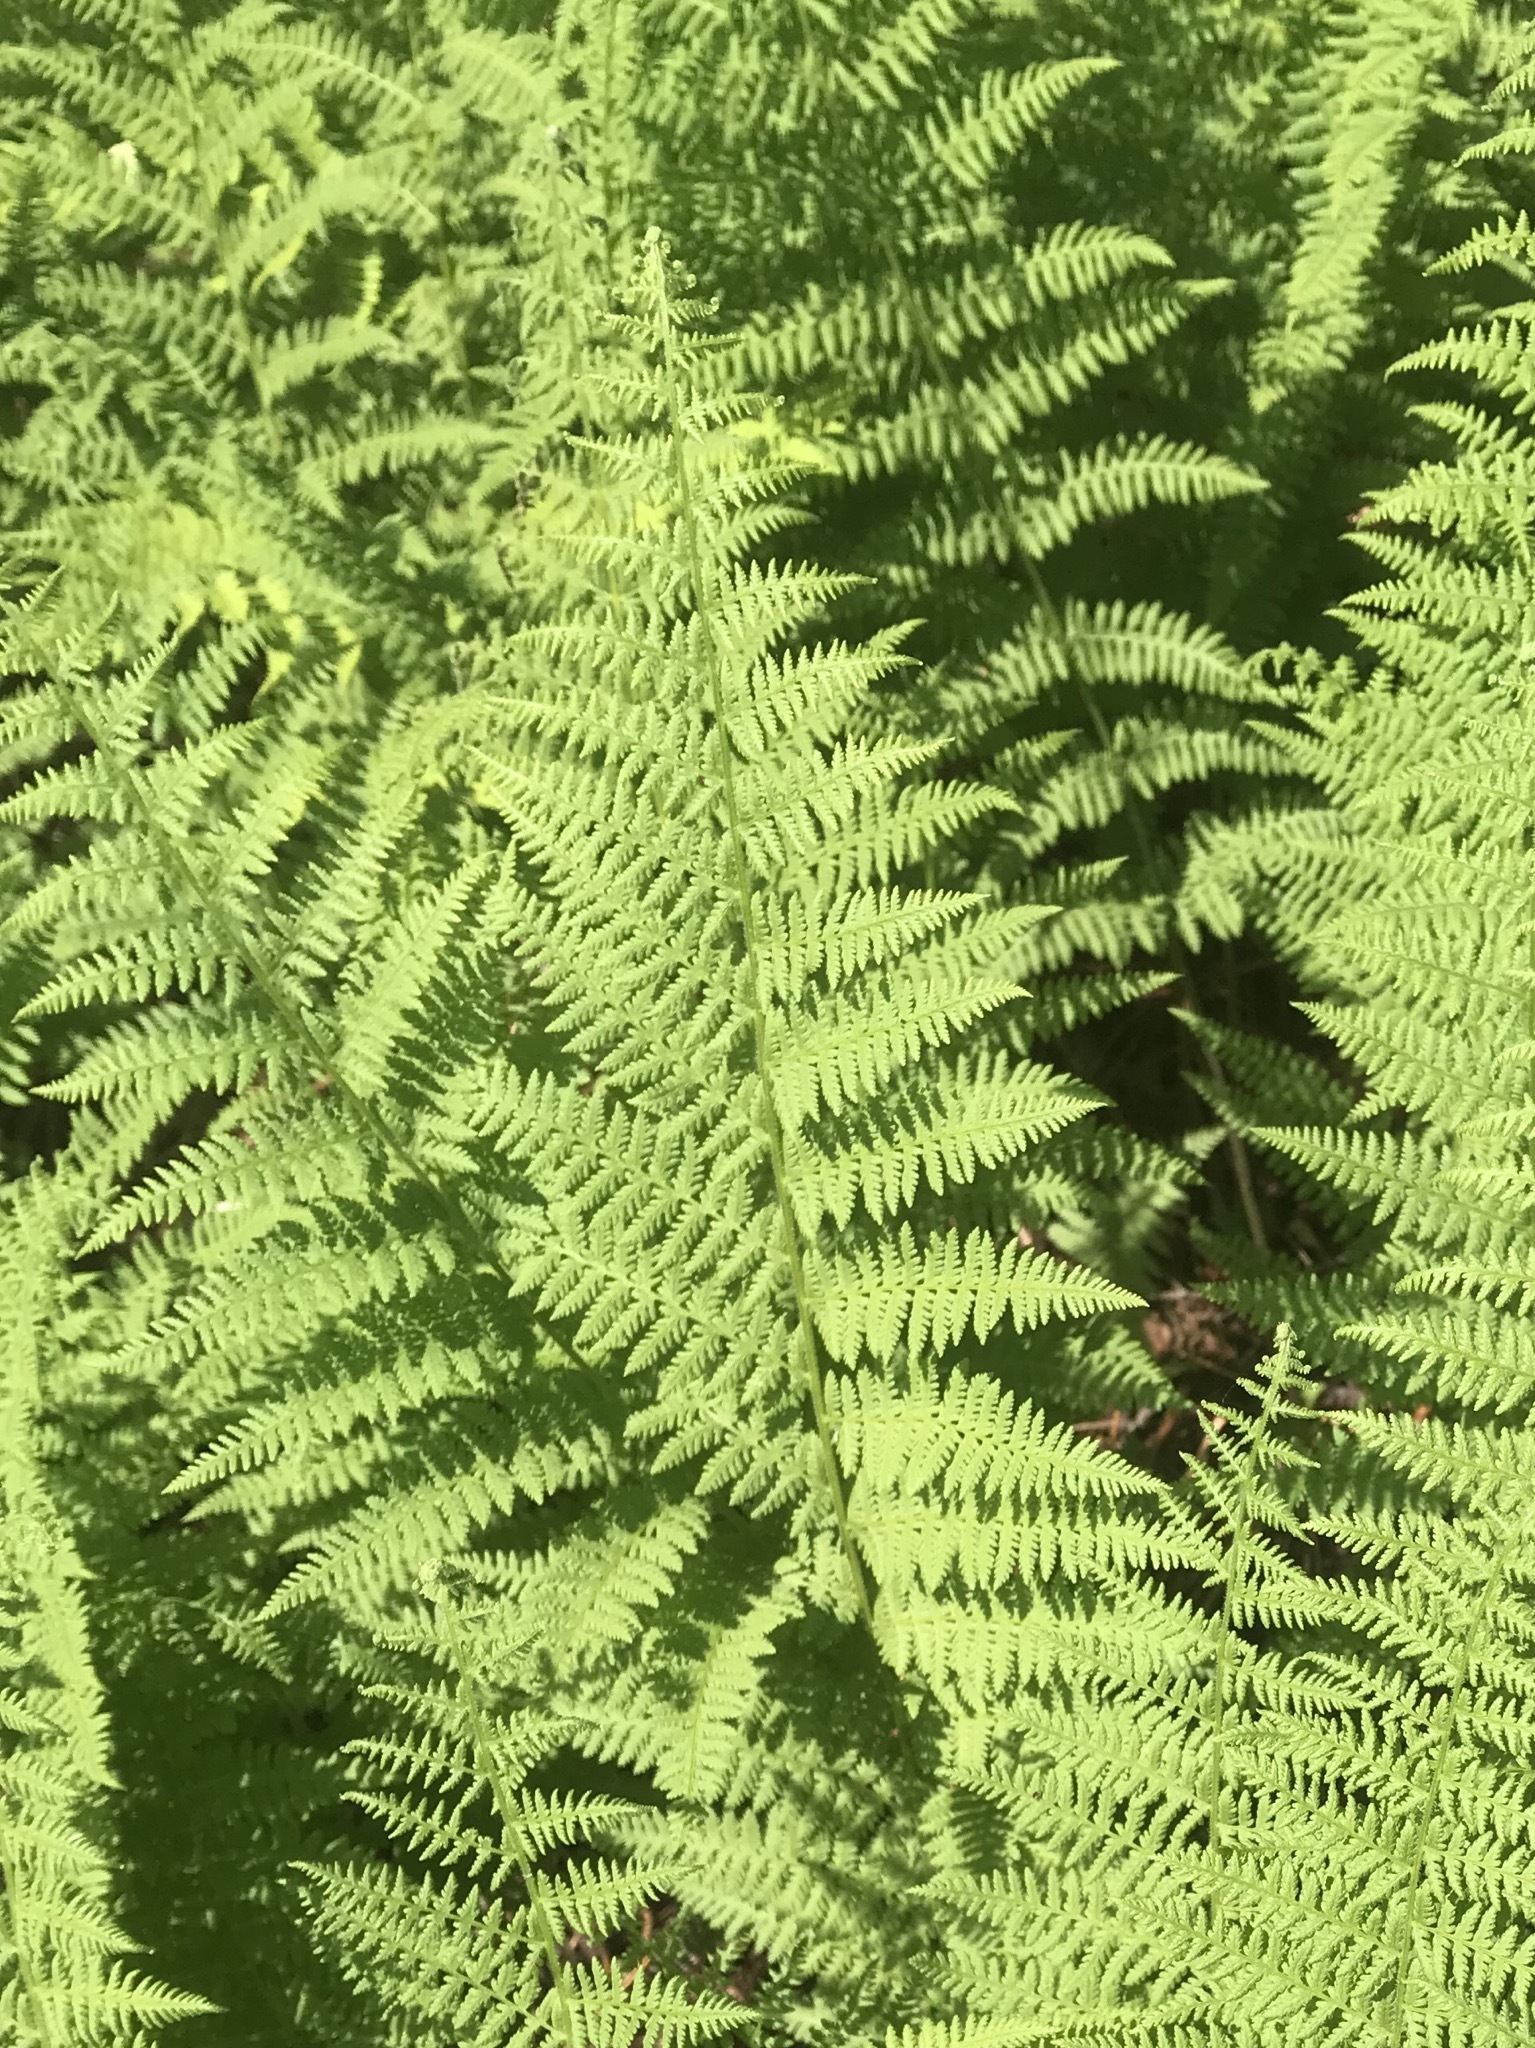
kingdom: Plantae
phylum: Tracheophyta
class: Polypodiopsida
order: Polypodiales
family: Dennstaedtiaceae
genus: Sitobolium
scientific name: Sitobolium punctilobum
